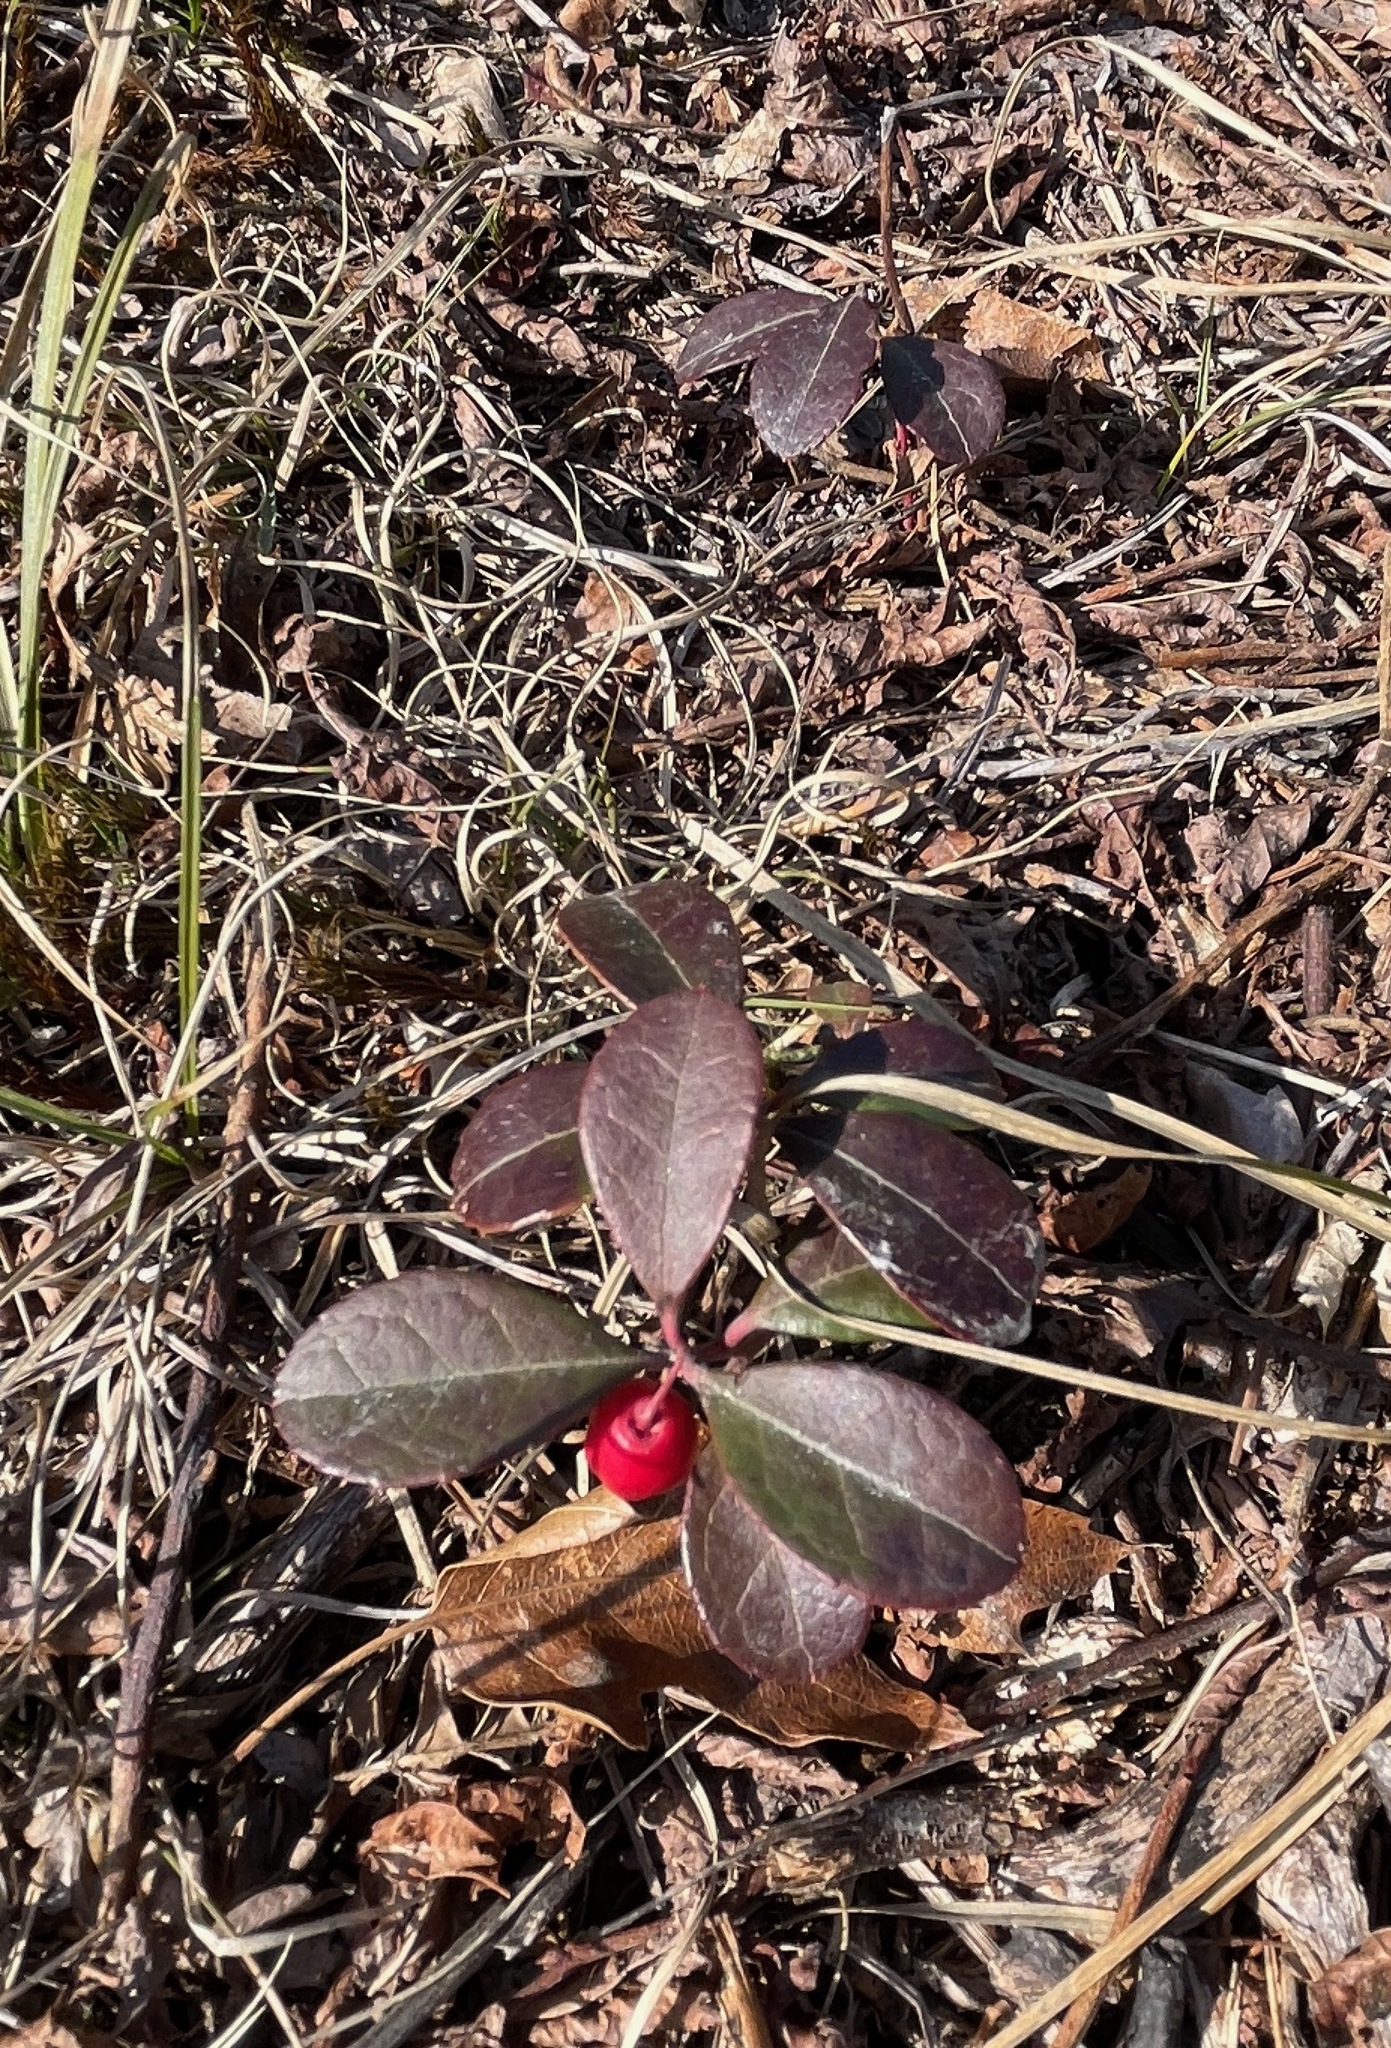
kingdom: Plantae
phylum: Tracheophyta
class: Magnoliopsida
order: Ericales
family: Ericaceae
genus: Gaultheria
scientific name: Gaultheria procumbens
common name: Checkerberry
